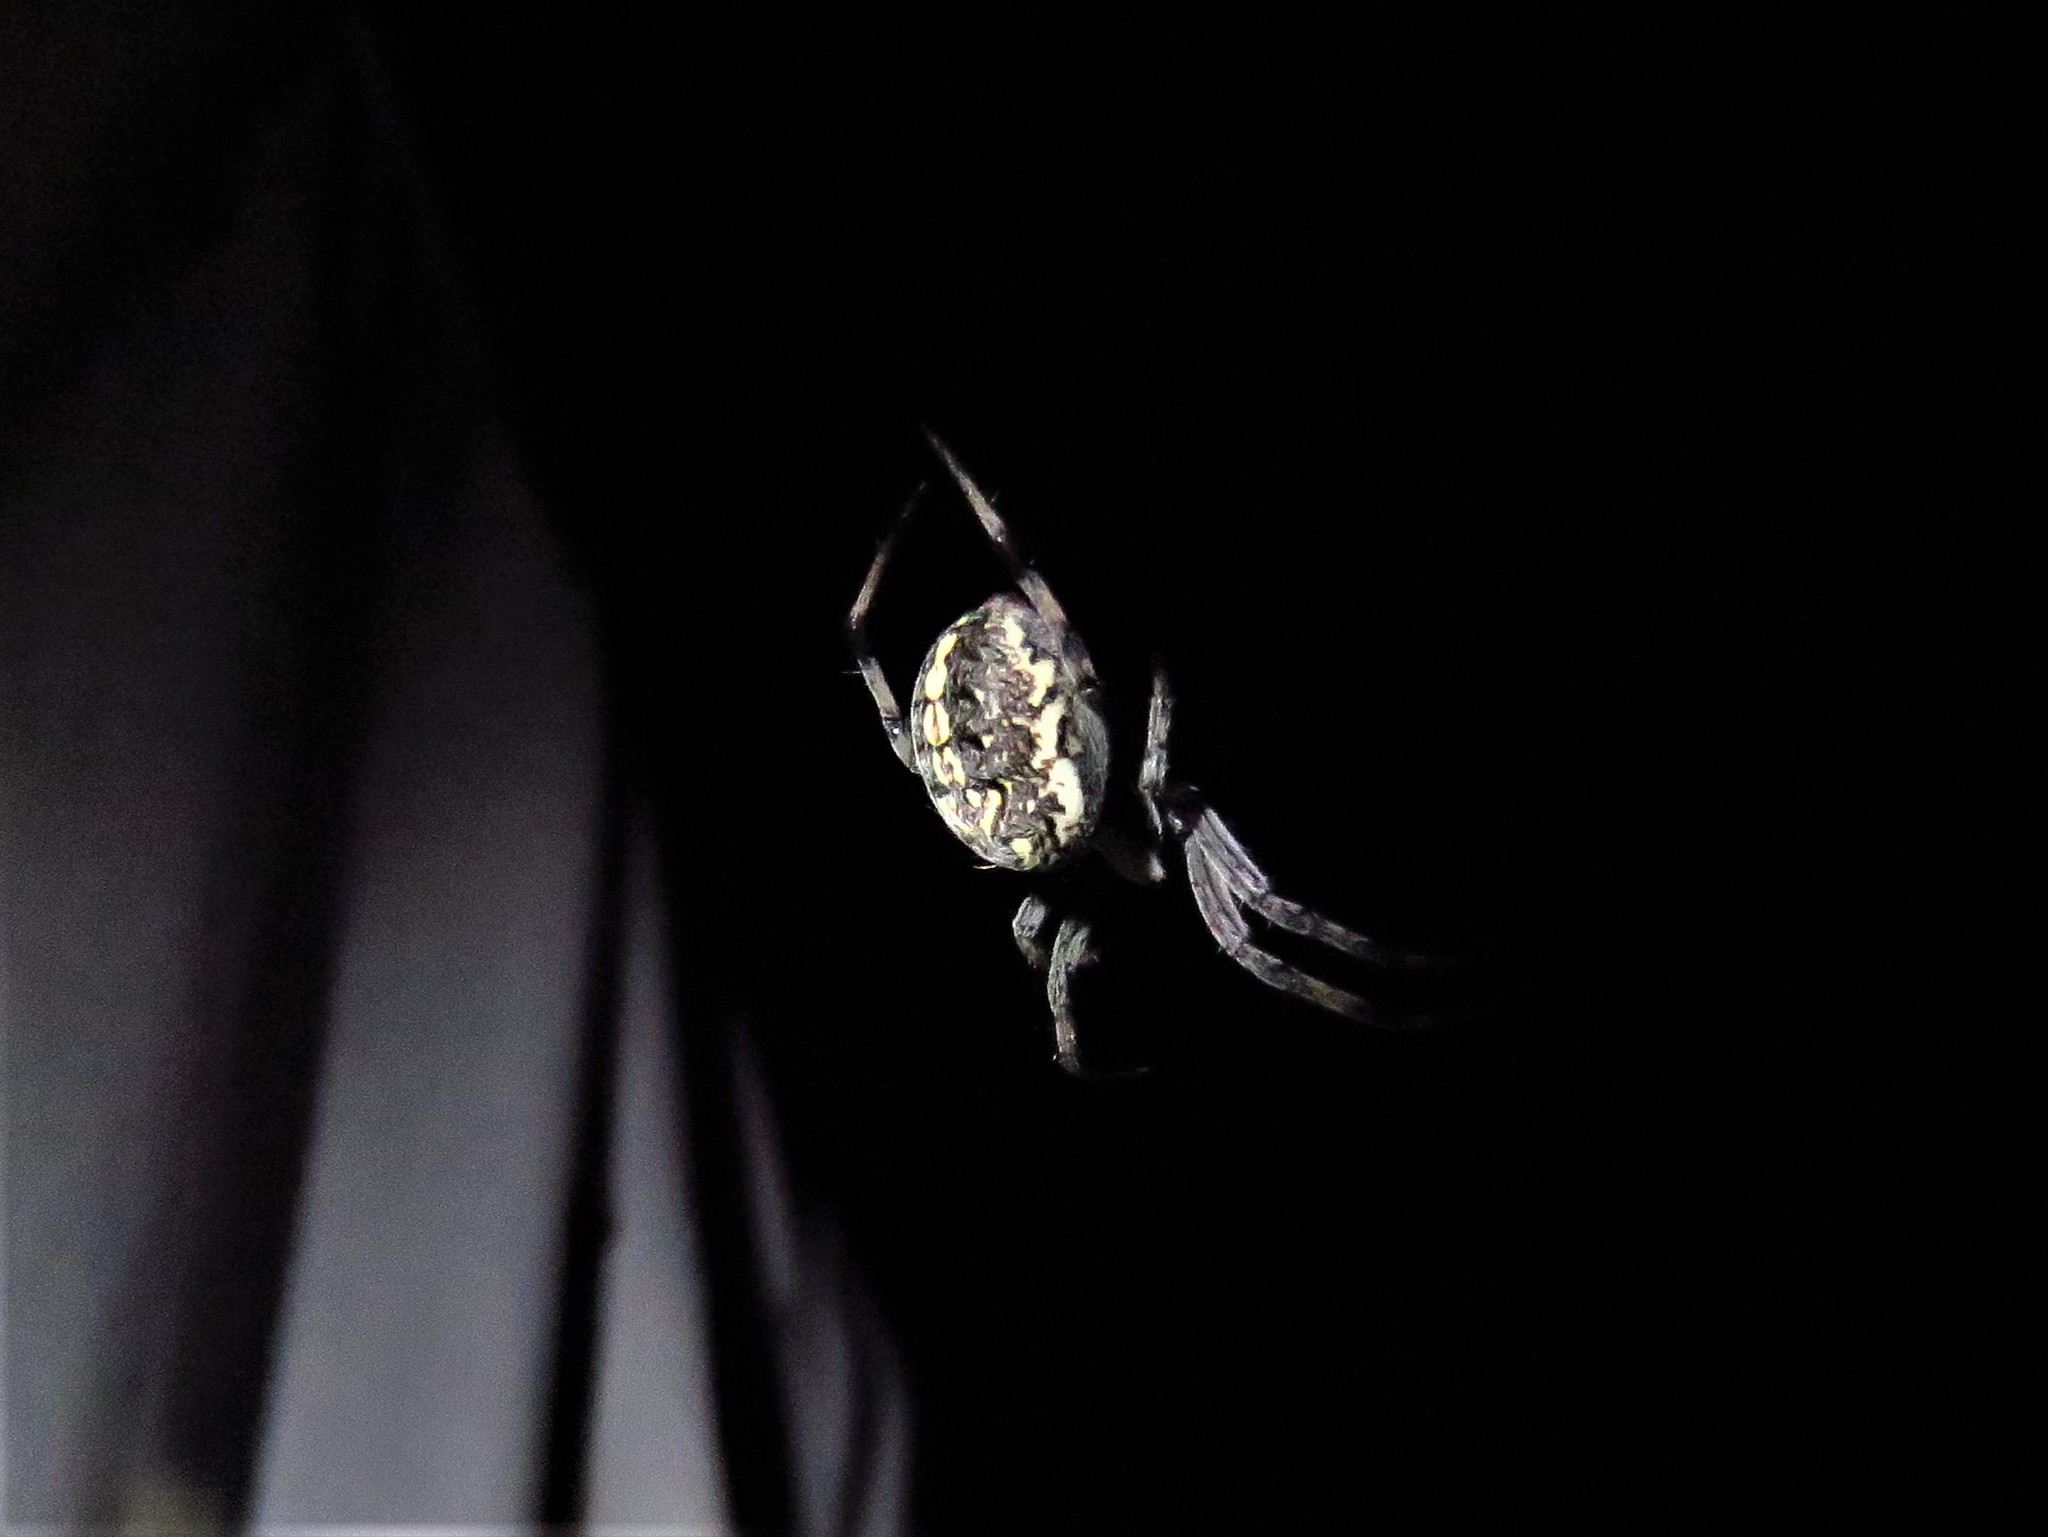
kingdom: Animalia
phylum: Arthropoda
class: Arachnida
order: Araneae
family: Araneidae
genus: Neoscona
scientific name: Neoscona oaxacensis
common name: Orb weavers
